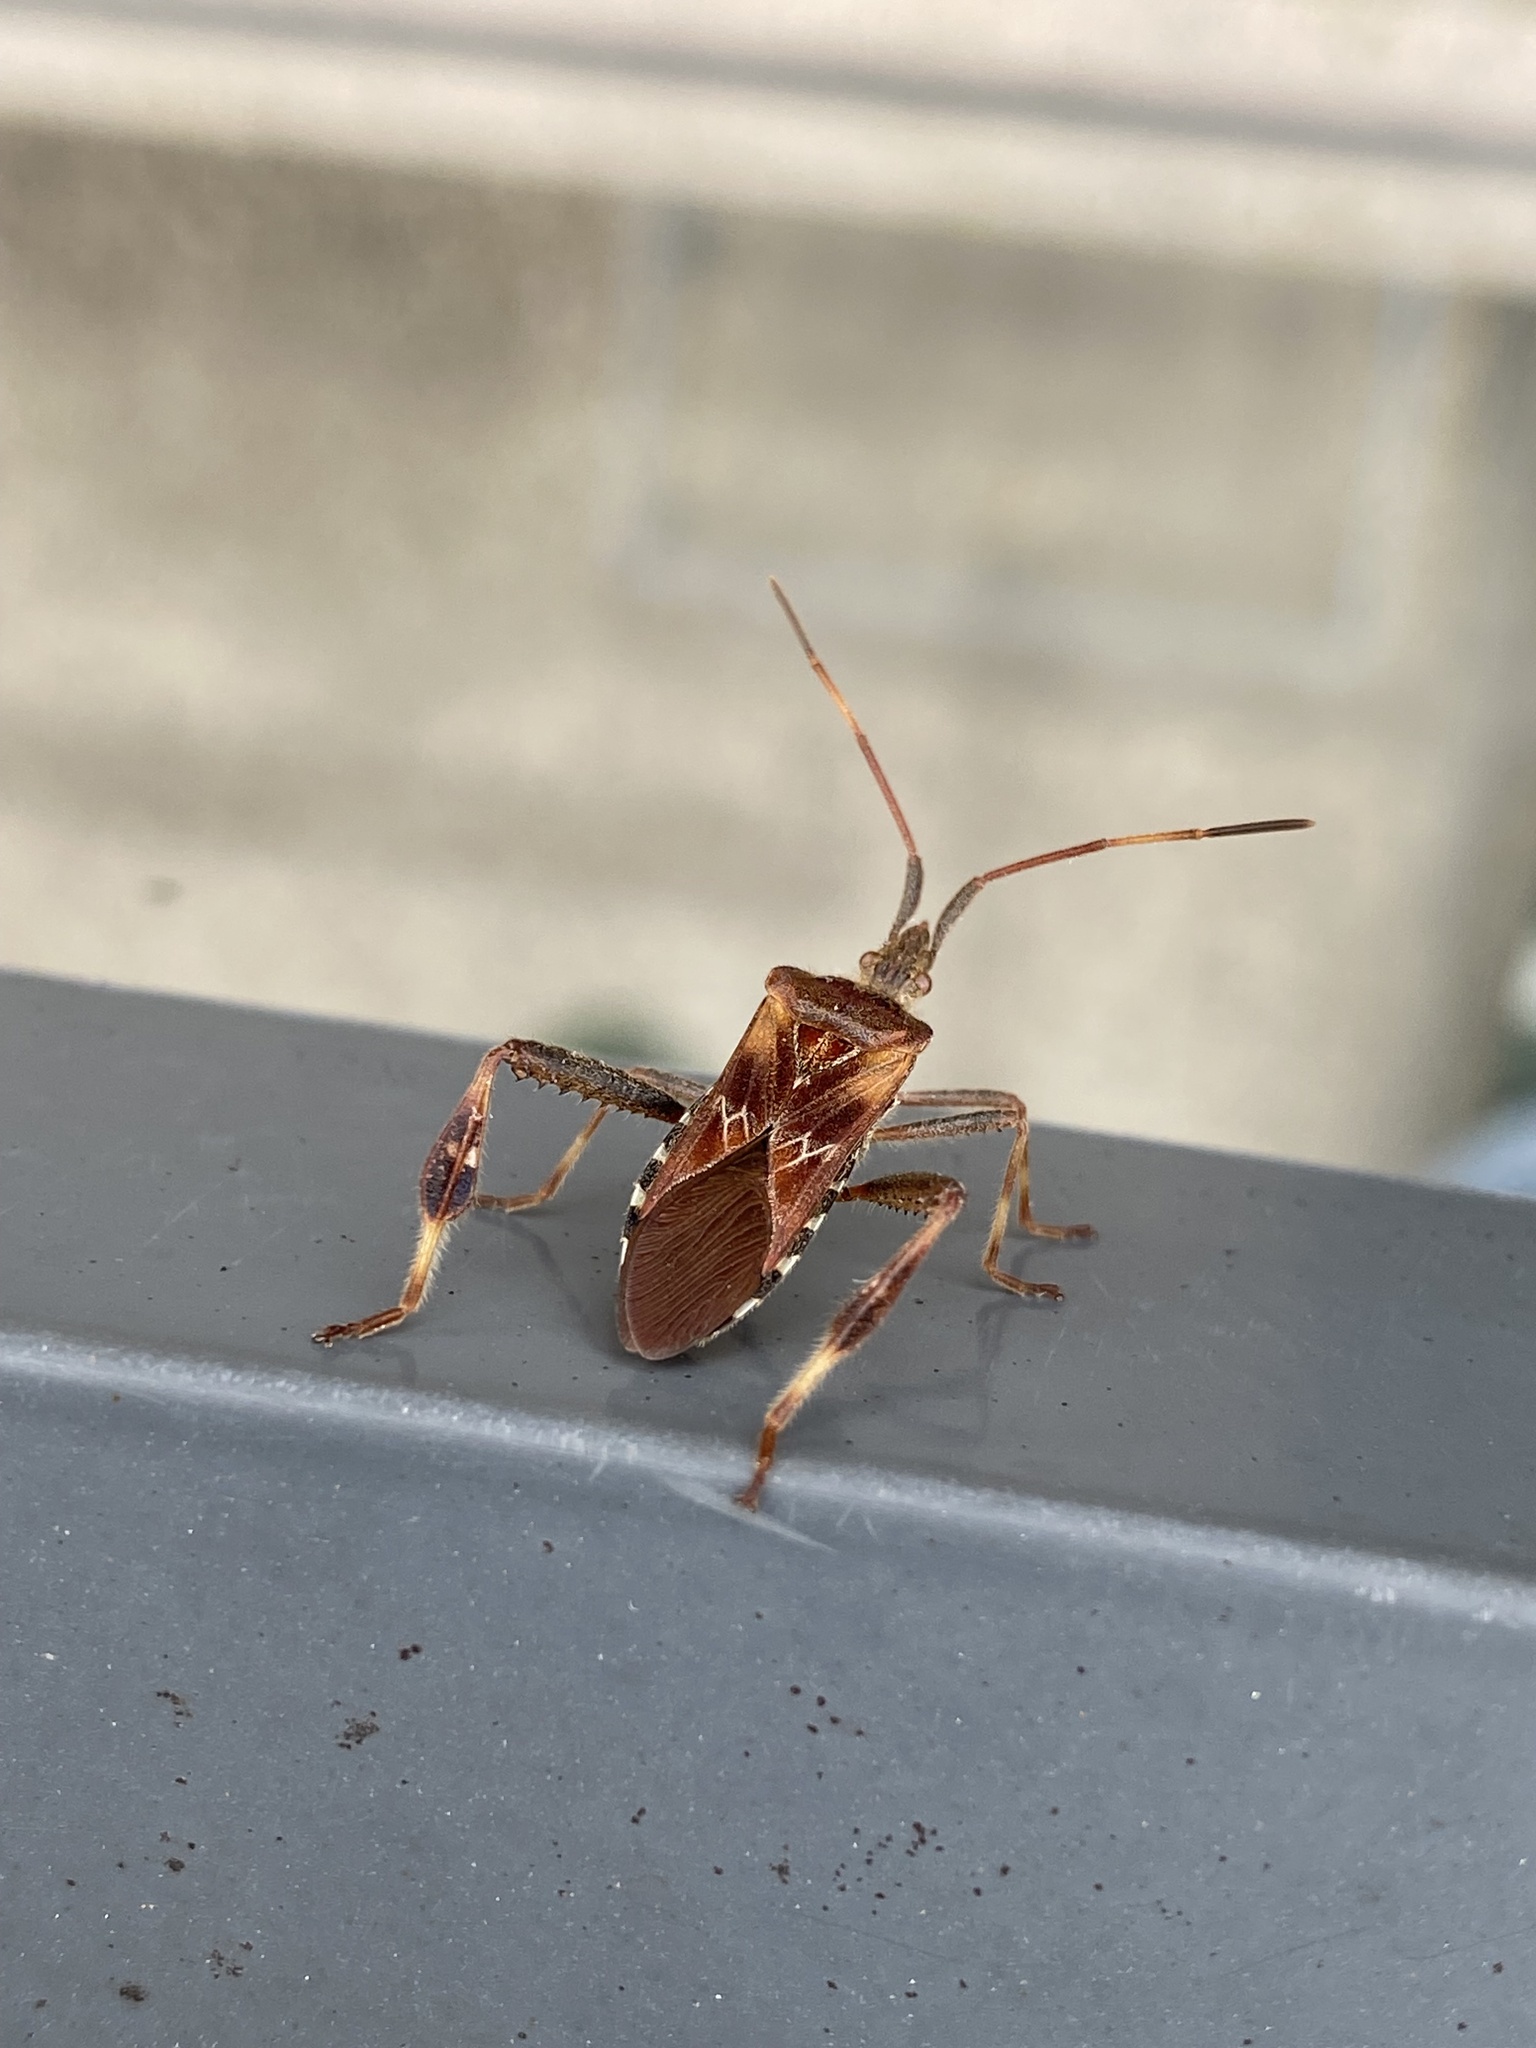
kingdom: Animalia
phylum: Arthropoda
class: Insecta
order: Hemiptera
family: Coreidae
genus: Leptoglossus
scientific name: Leptoglossus occidentalis
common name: Western conifer-seed bug
